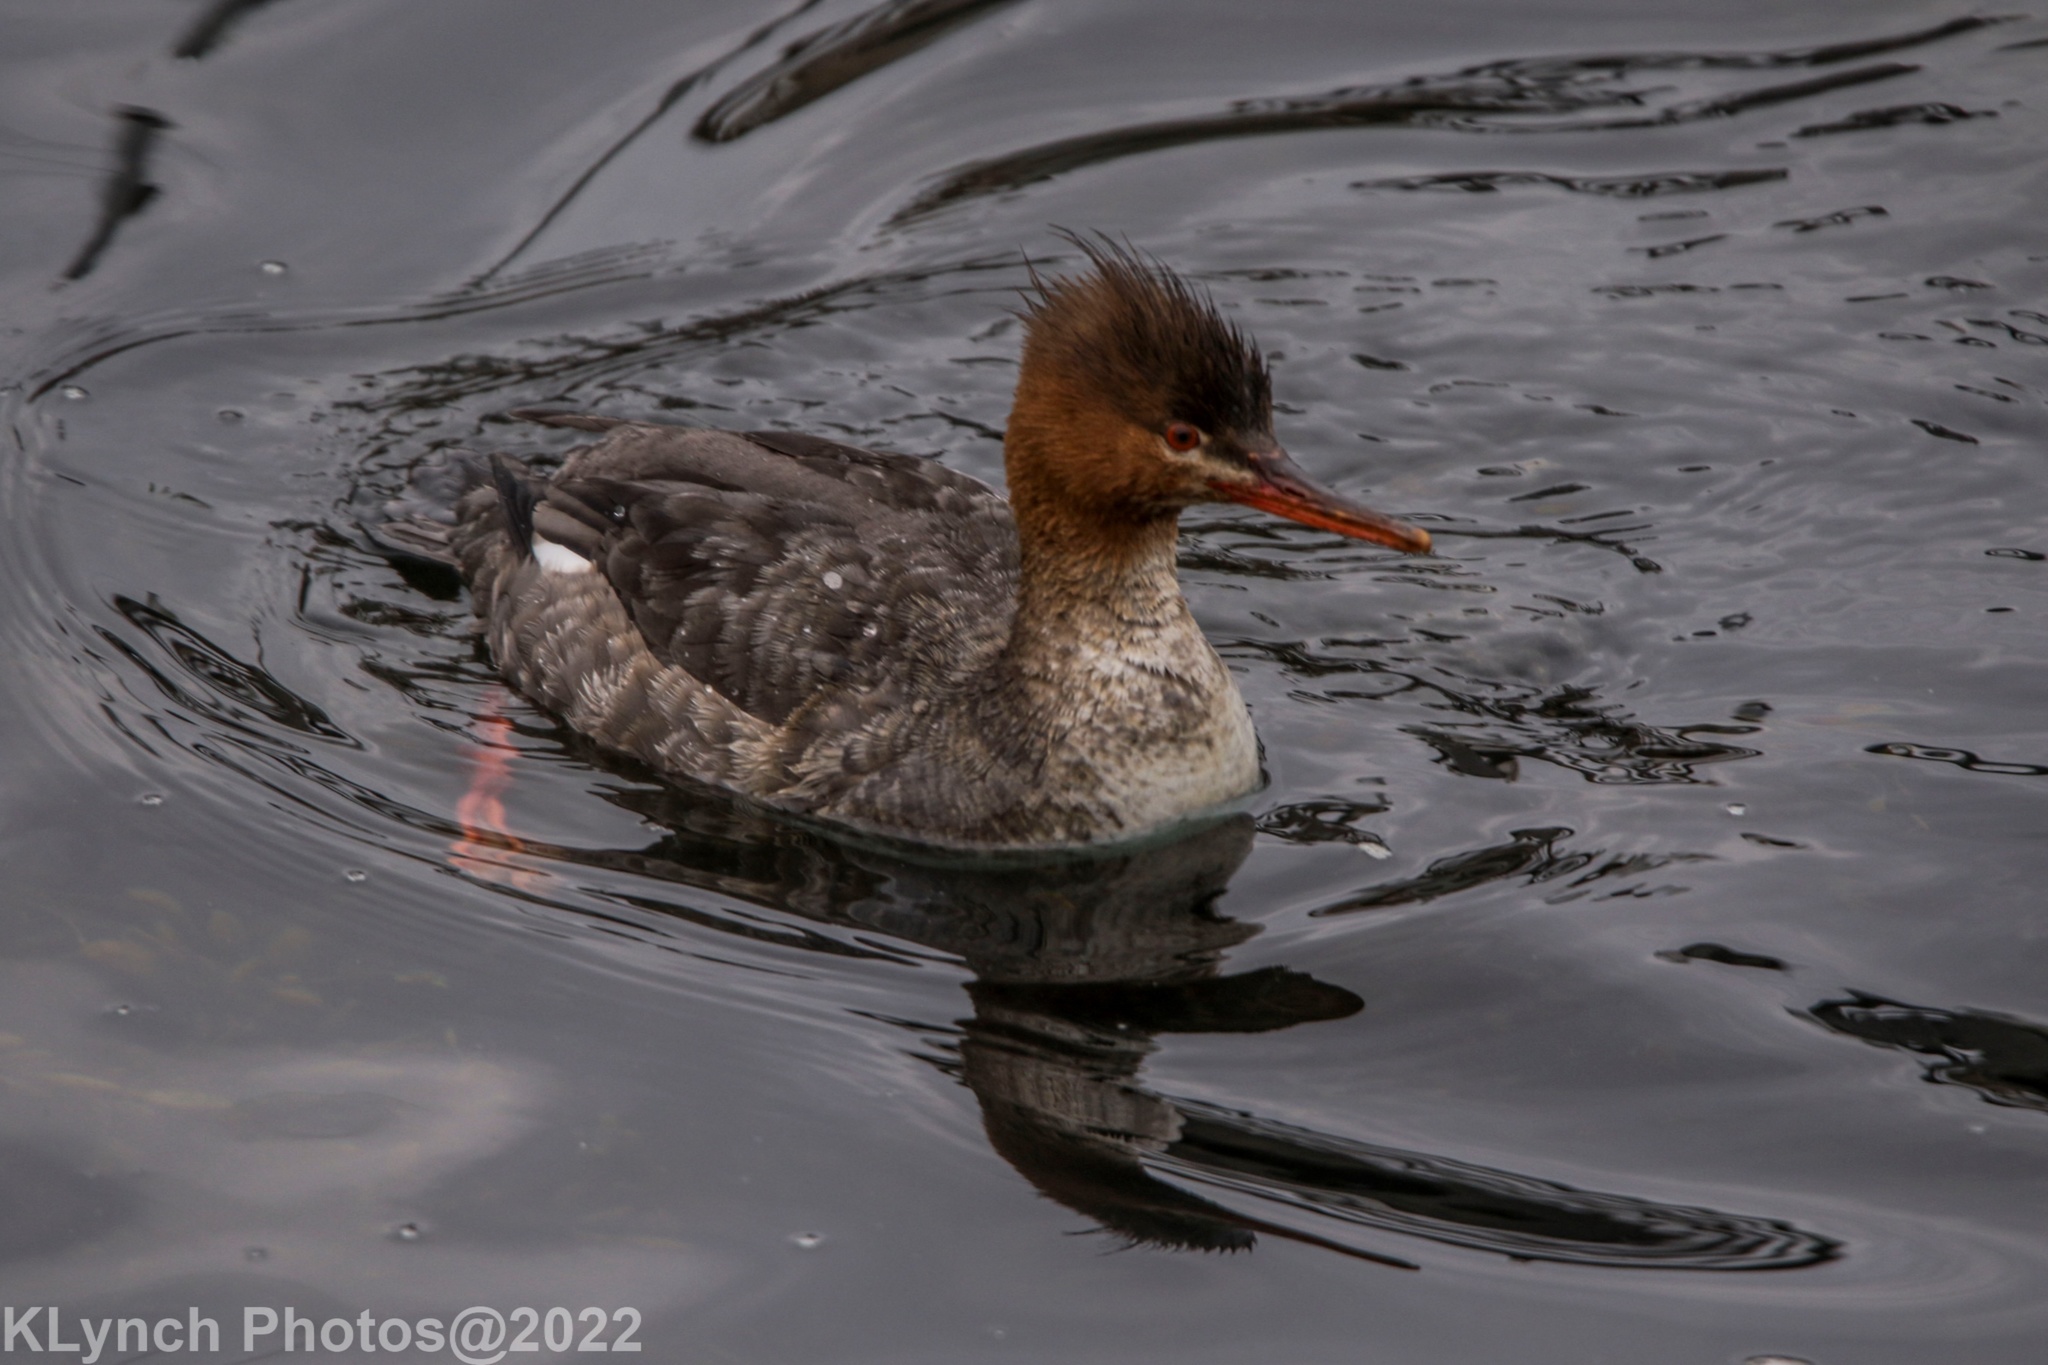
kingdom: Animalia
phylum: Chordata
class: Aves
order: Anseriformes
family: Anatidae
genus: Mergus
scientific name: Mergus serrator
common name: Red-breasted merganser
